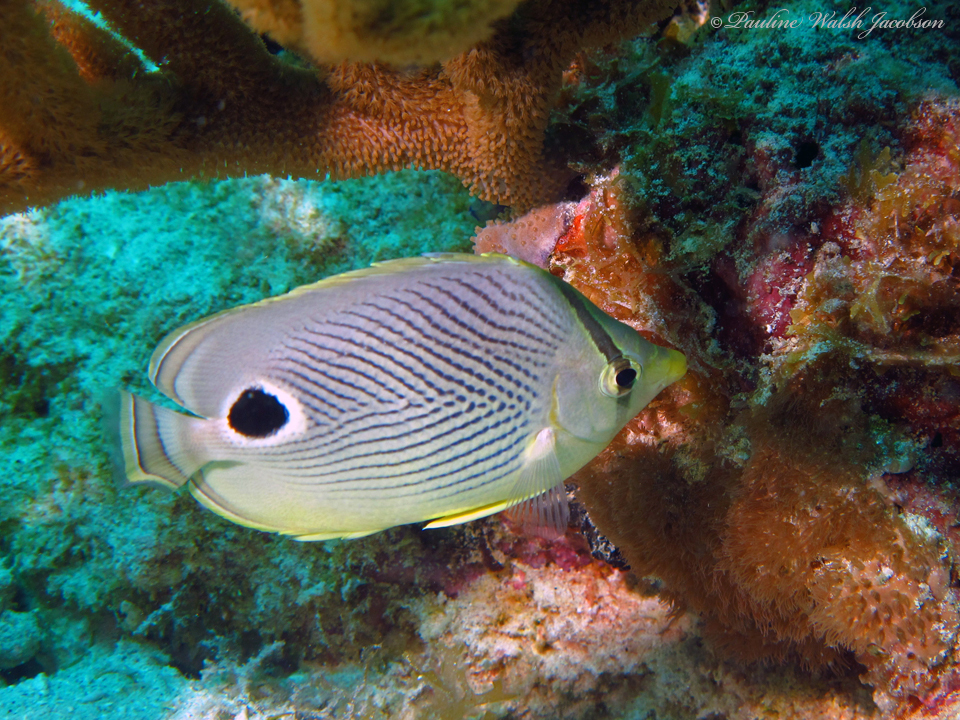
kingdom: Animalia
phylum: Chordata
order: Perciformes
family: Chaetodontidae
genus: Chaetodon
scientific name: Chaetodon capistratus
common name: Kete
